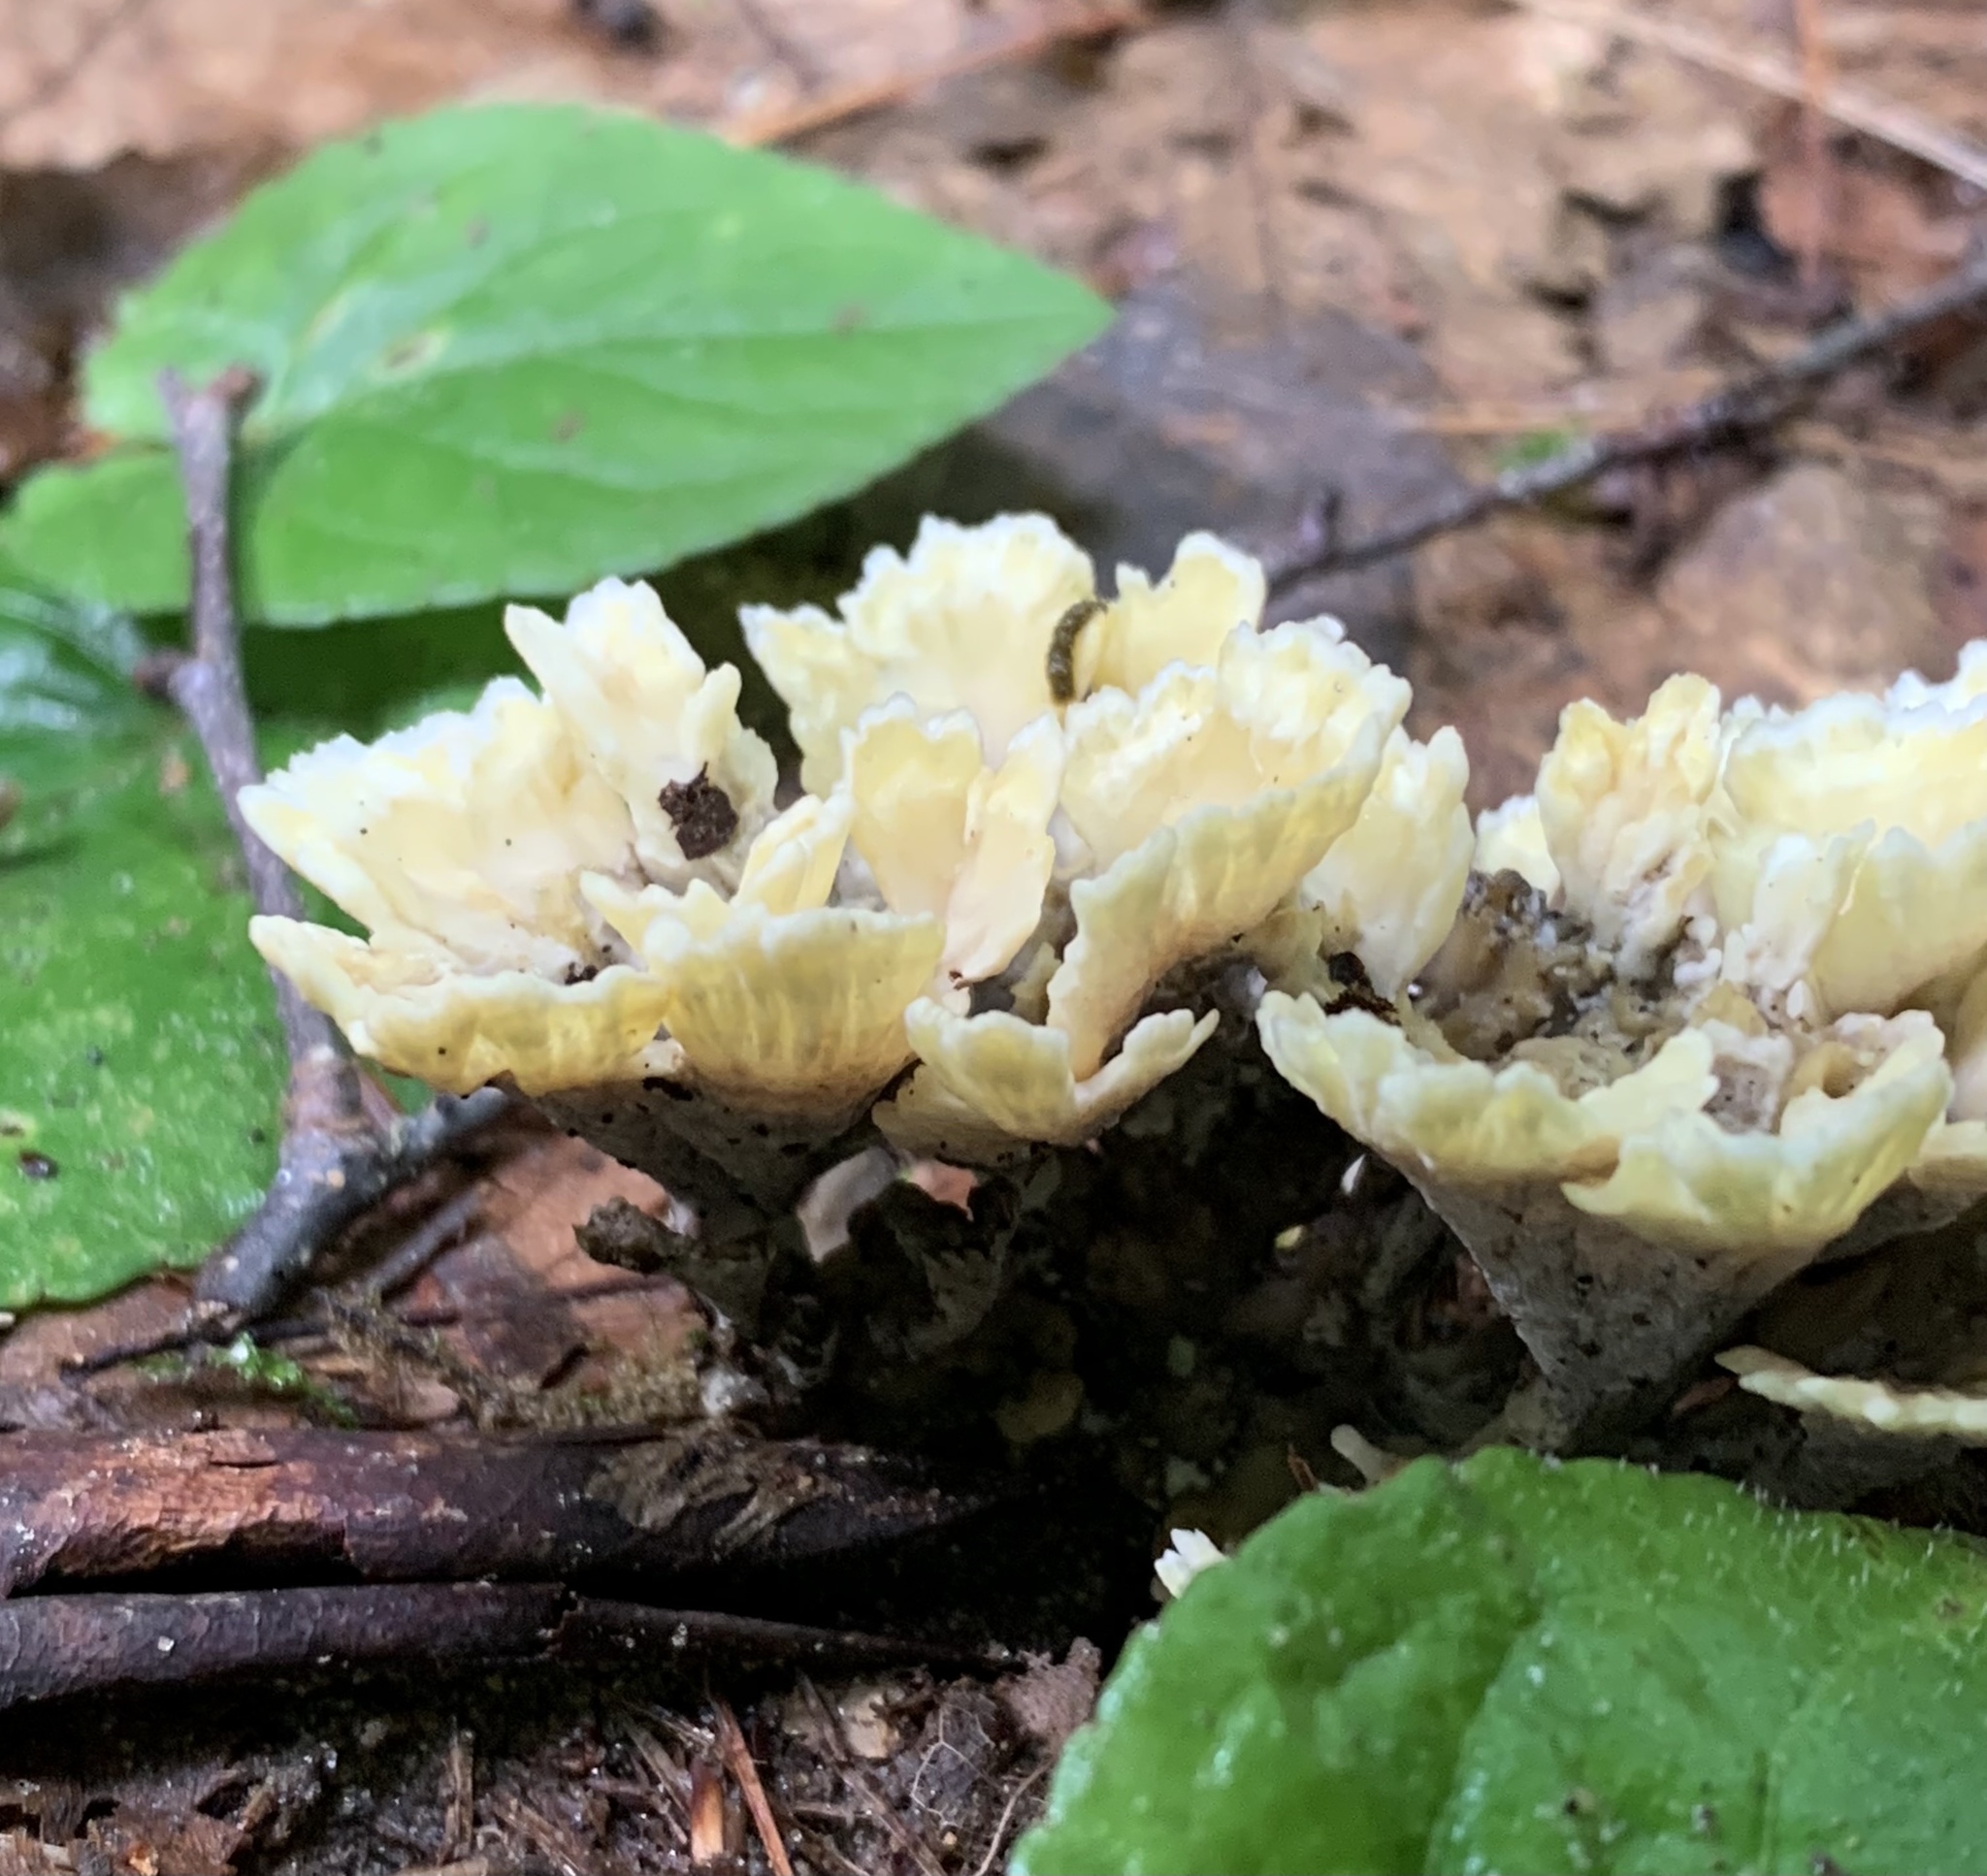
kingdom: Fungi
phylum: Basidiomycota
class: Agaricomycetes
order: Thelephorales
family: Thelephoraceae
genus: Thelephora
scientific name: Thelephora vialis
